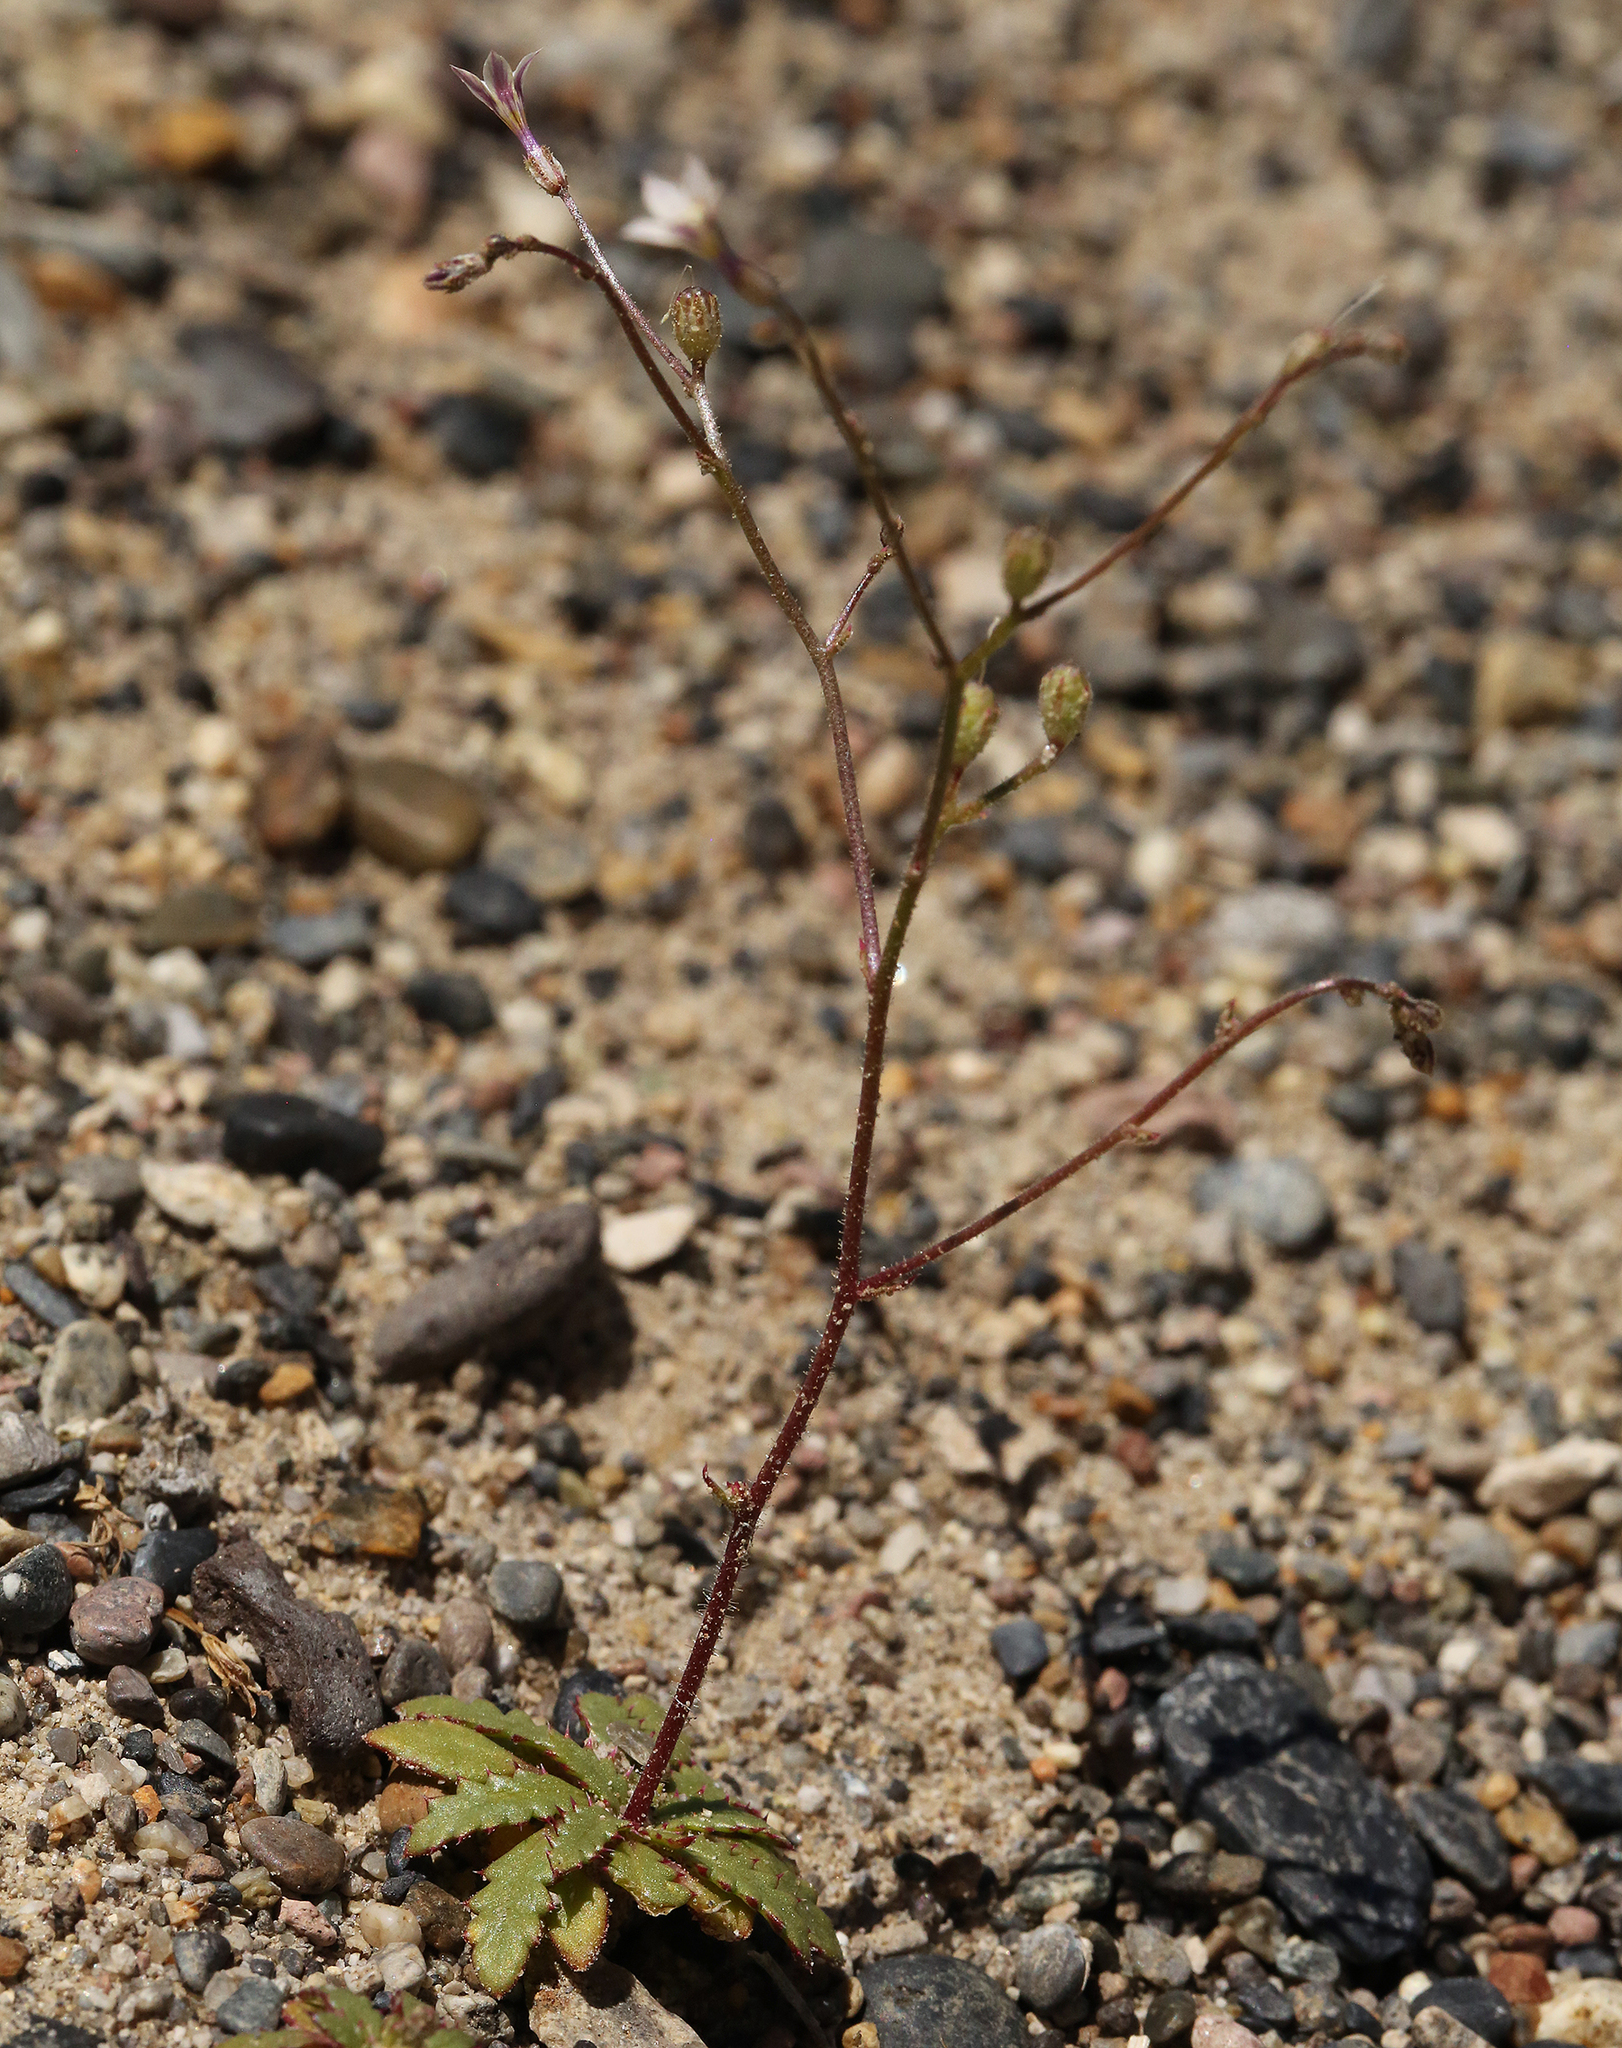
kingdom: Plantae
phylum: Tracheophyta
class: Magnoliopsida
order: Ericales
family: Polemoniaceae
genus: Aliciella
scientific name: Aliciella monoensis
